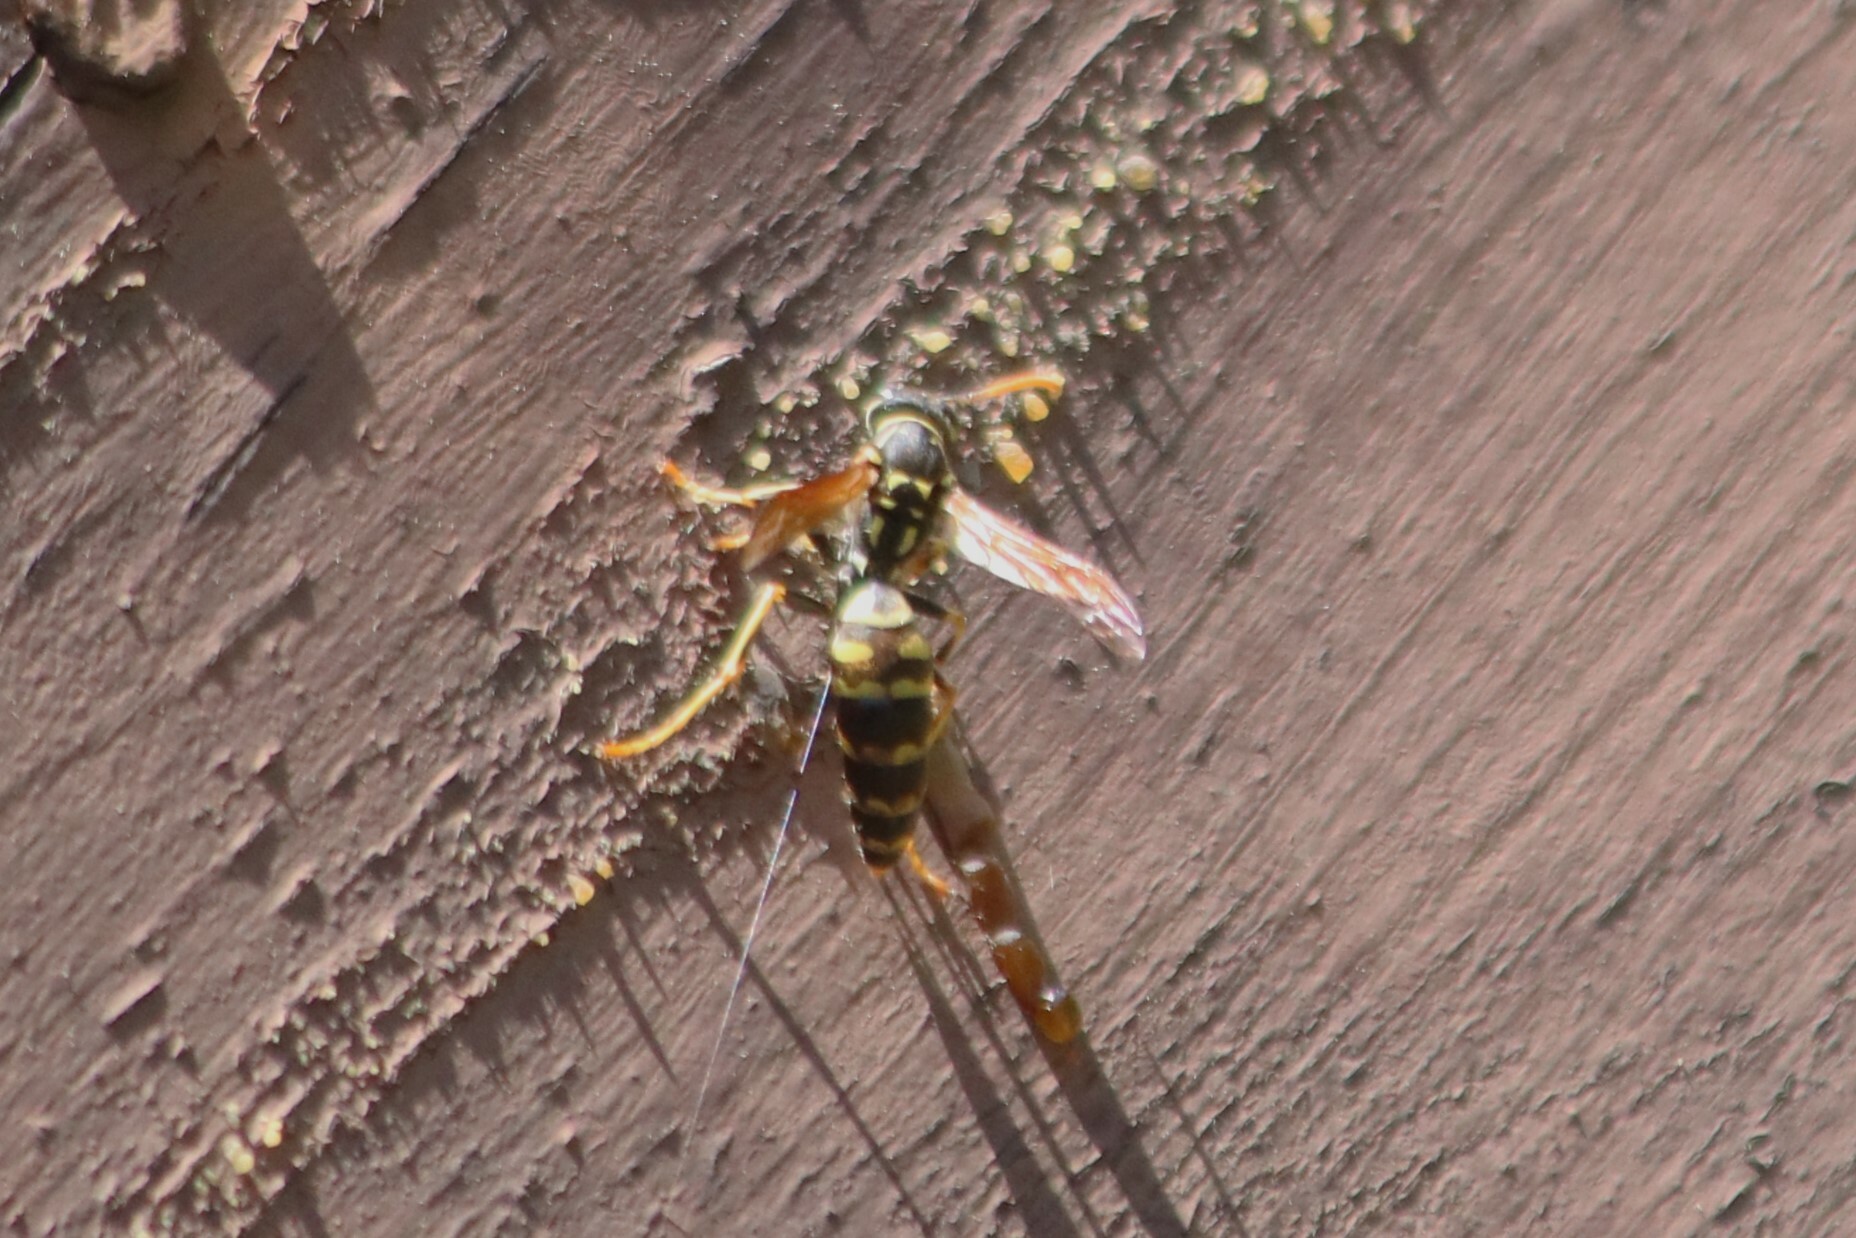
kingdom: Animalia
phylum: Arthropoda
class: Insecta
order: Hymenoptera
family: Eumenidae
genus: Polistes
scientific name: Polistes dominula
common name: Paper wasp
